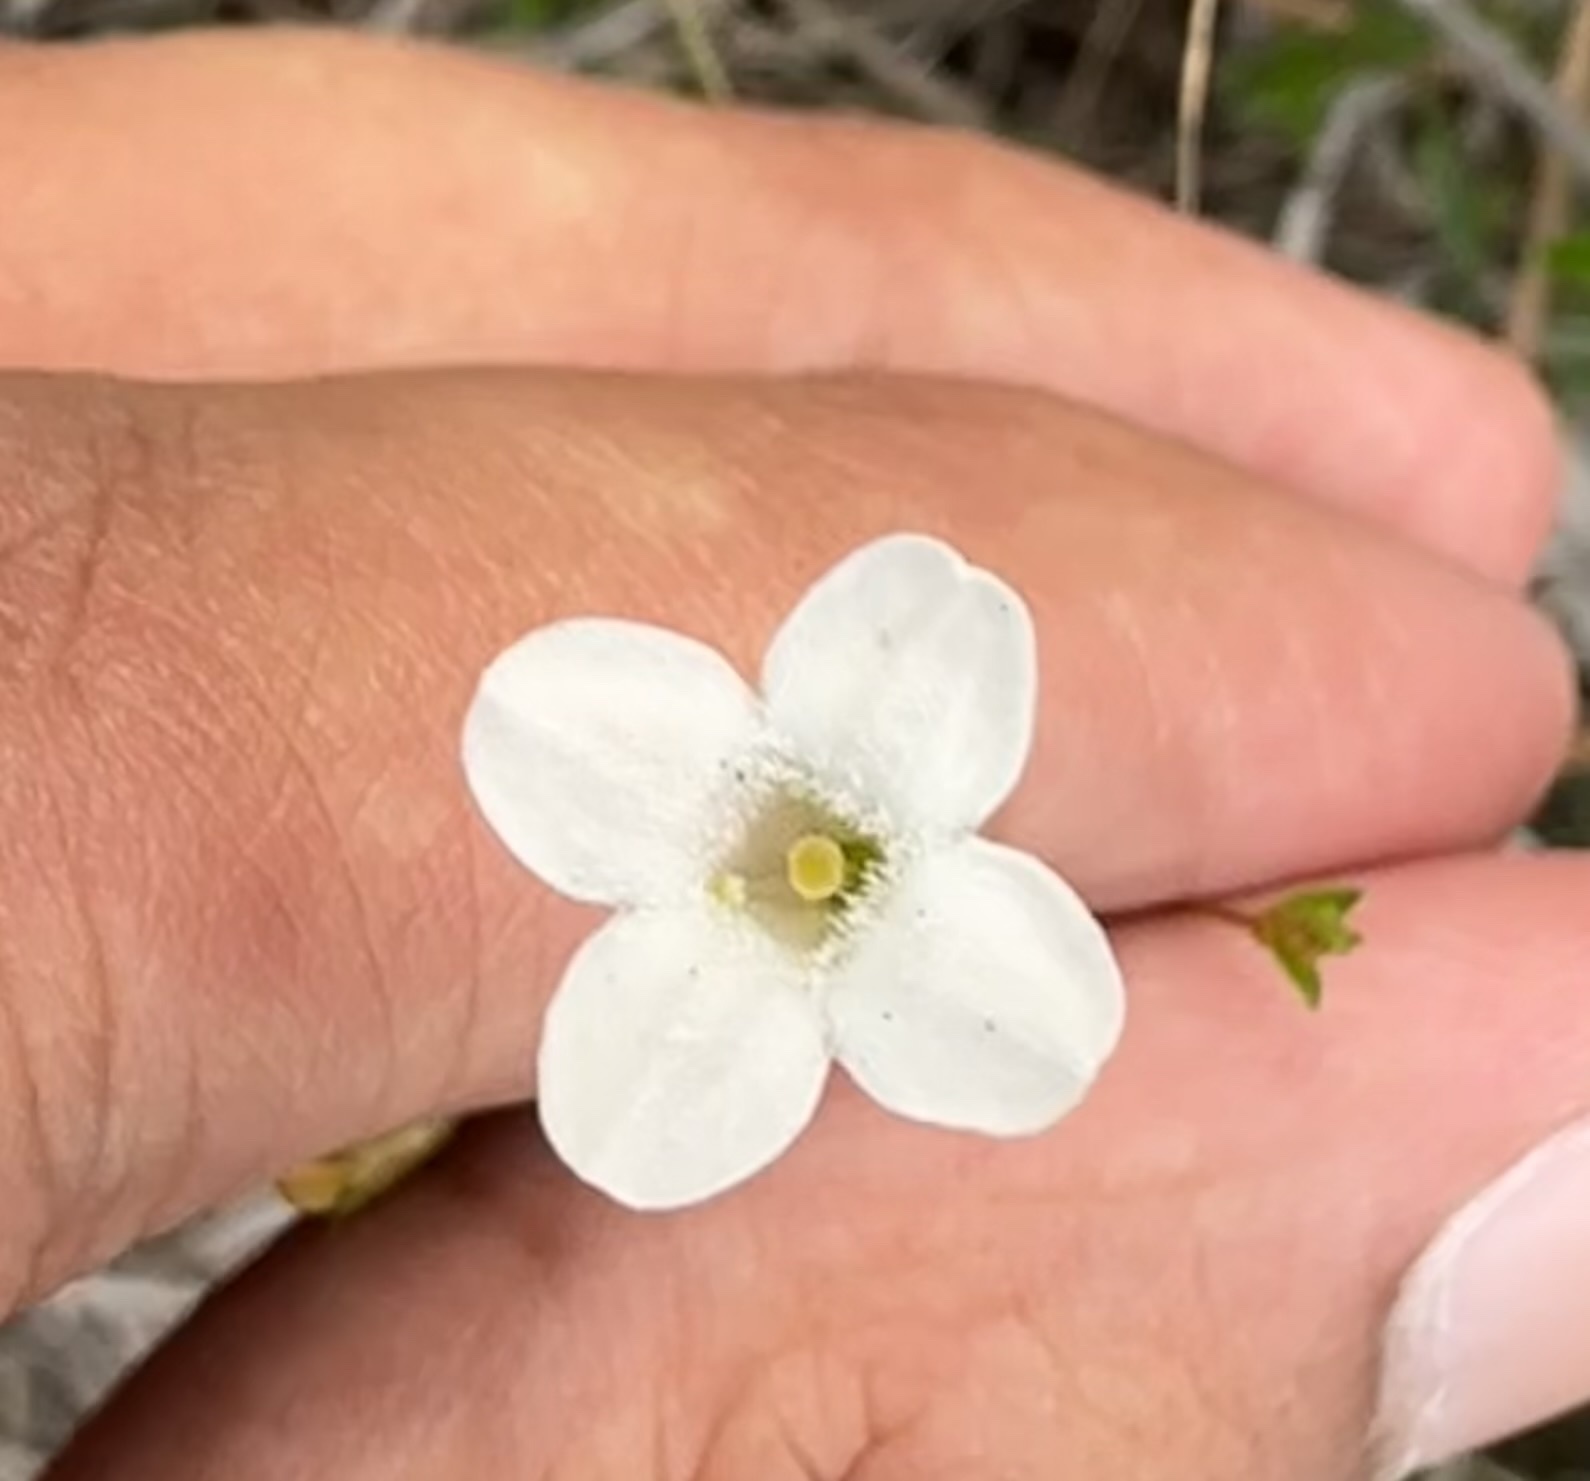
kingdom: Plantae
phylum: Tracheophyta
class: Magnoliopsida
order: Gentianales
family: Loganiaceae
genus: Mitrasacme
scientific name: Mitrasacme polymorpha
